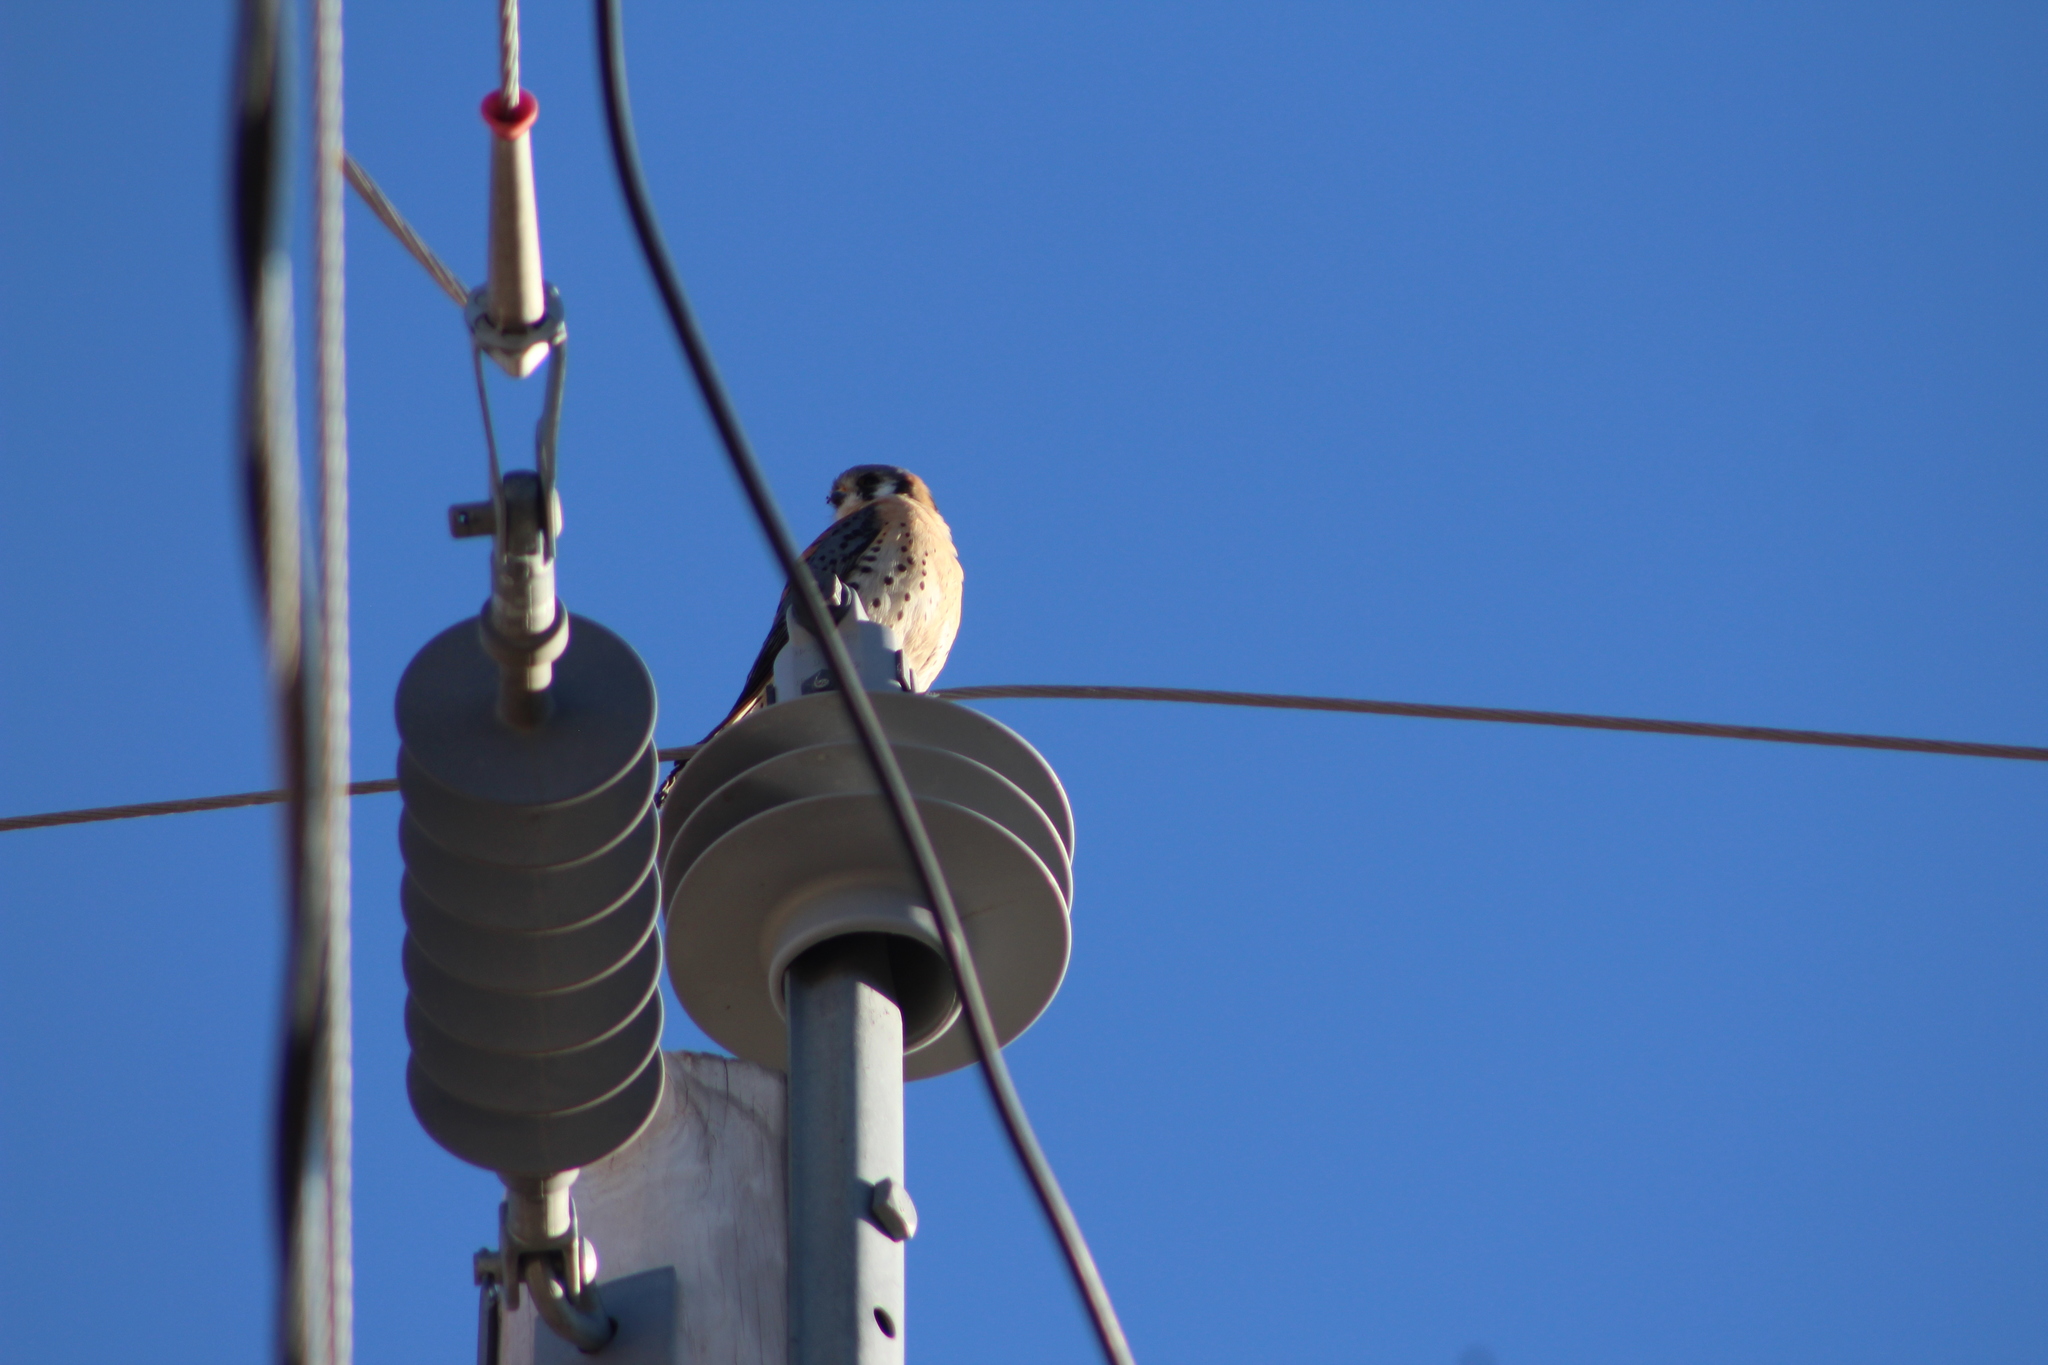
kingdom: Animalia
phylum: Chordata
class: Aves
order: Falconiformes
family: Falconidae
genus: Falco
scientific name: Falco sparverius
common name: American kestrel
